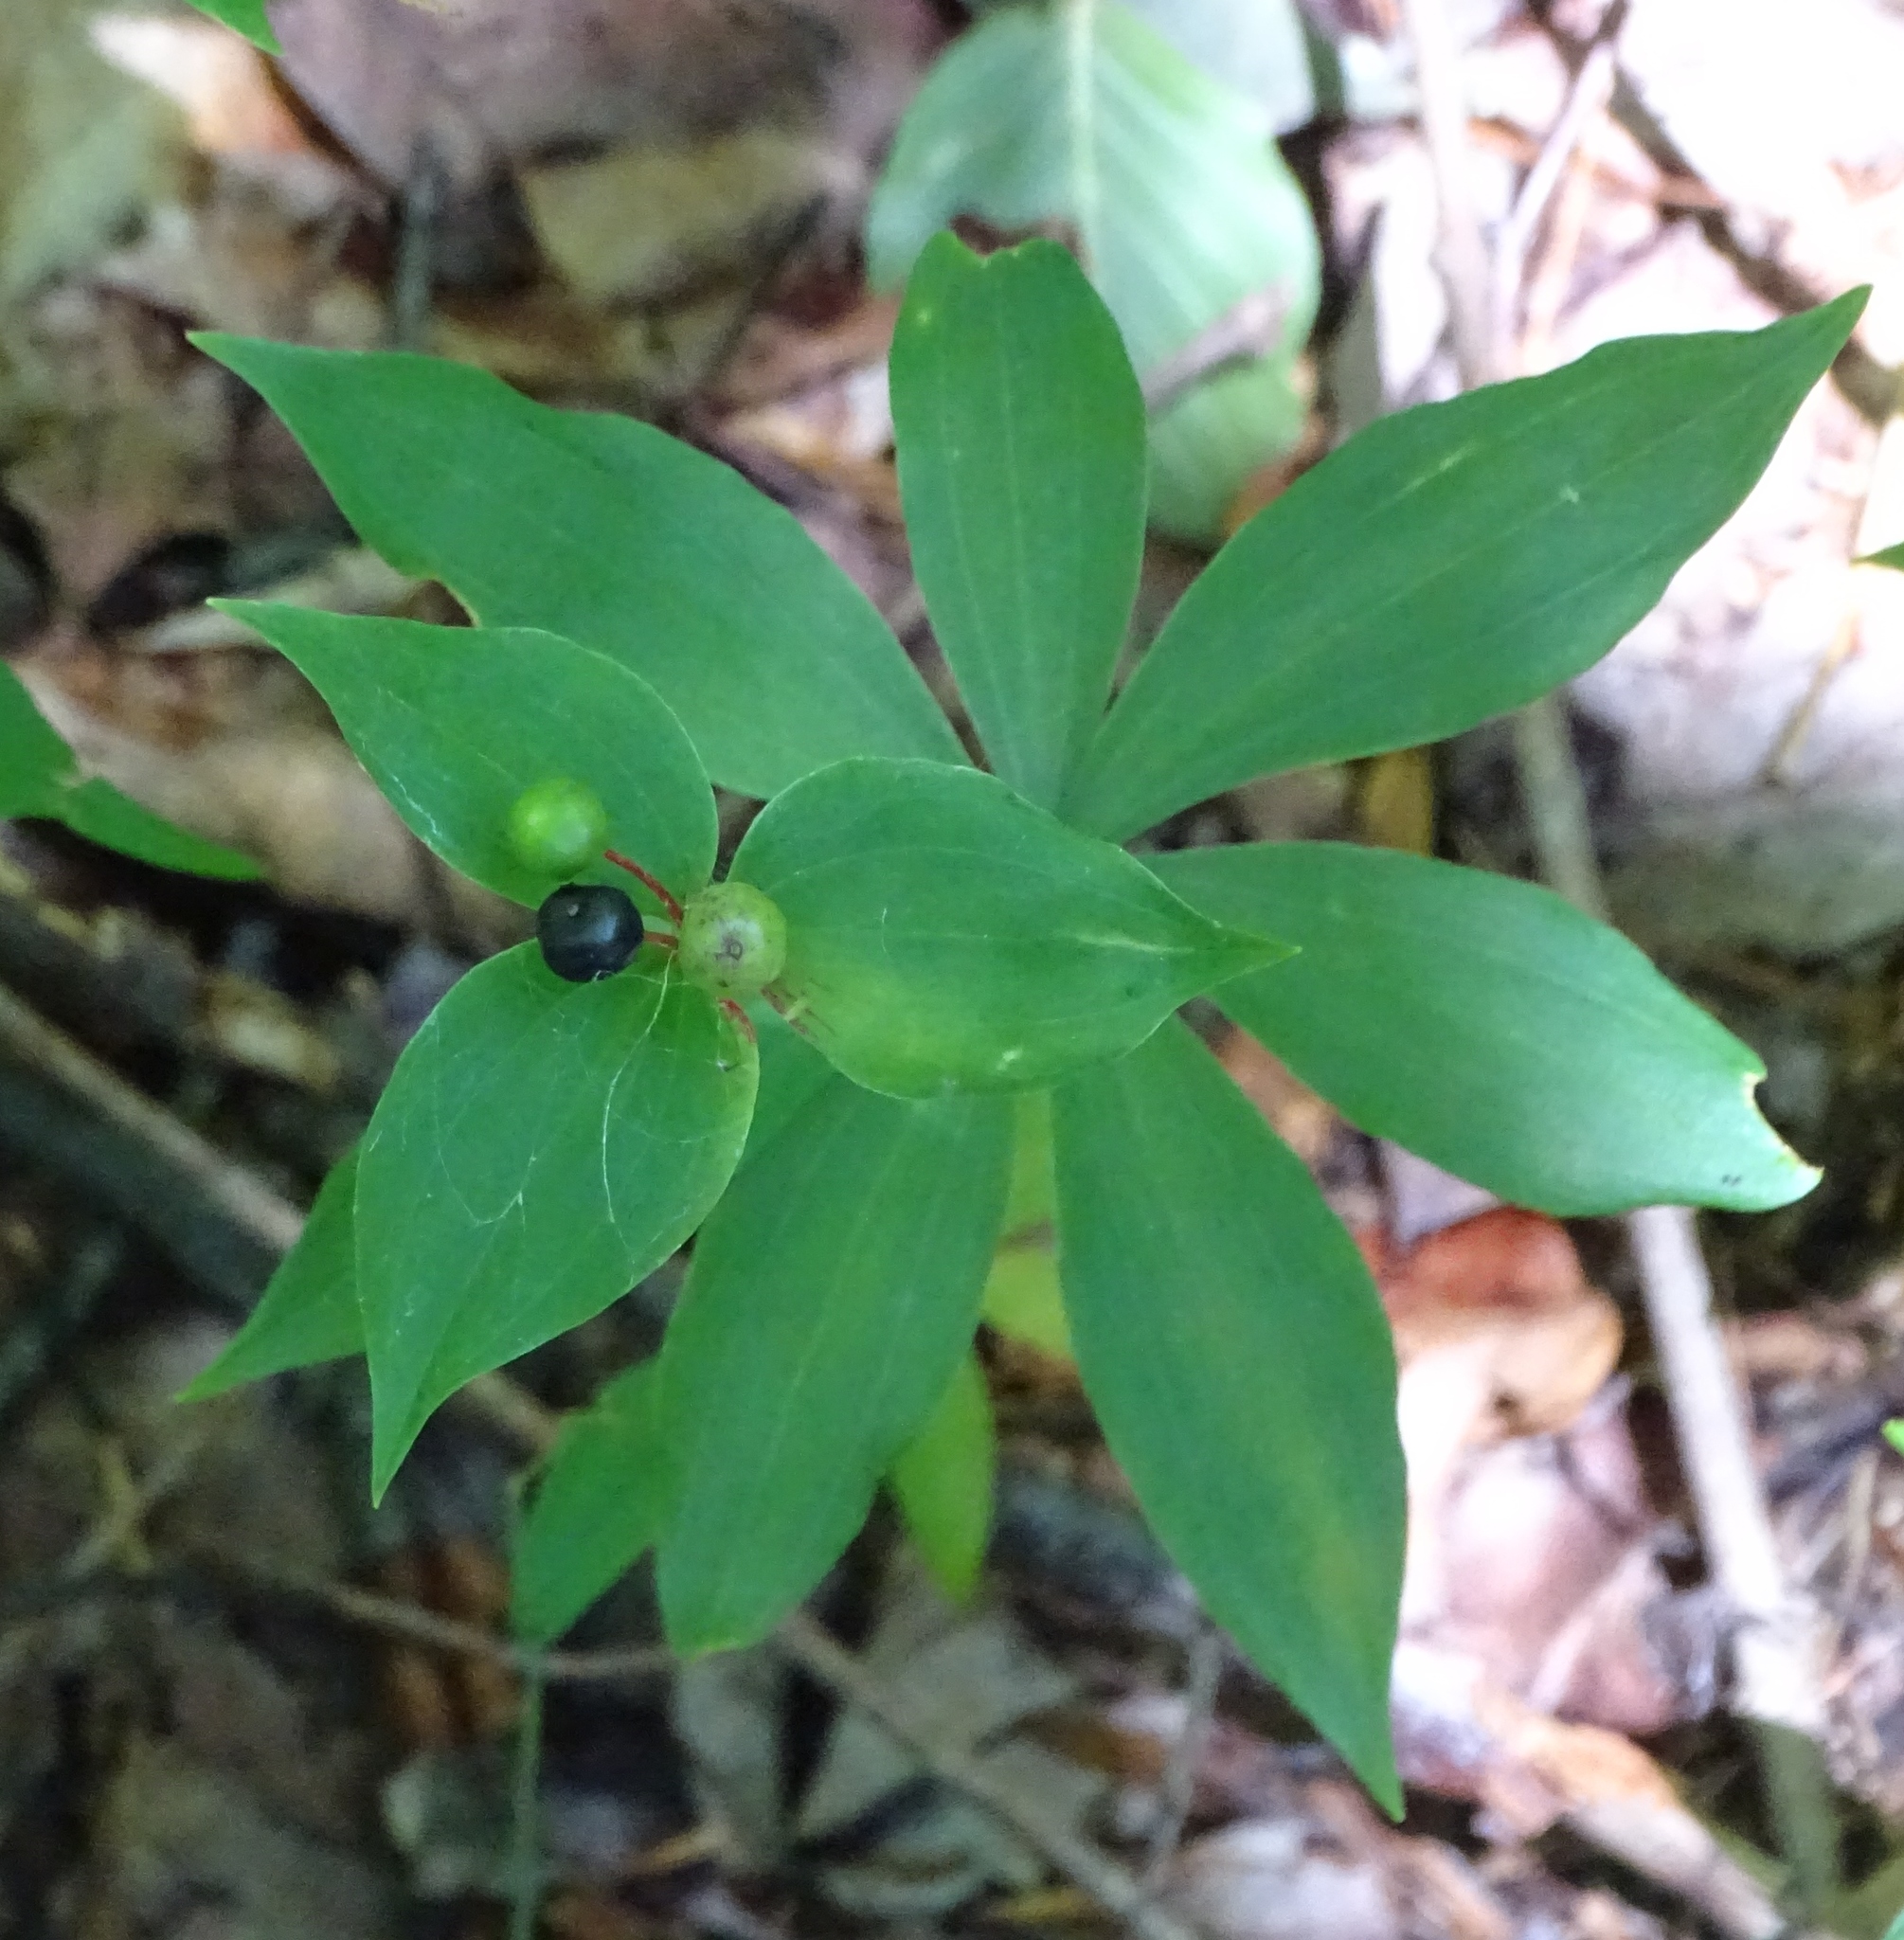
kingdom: Plantae
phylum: Tracheophyta
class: Liliopsida
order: Liliales
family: Liliaceae
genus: Medeola
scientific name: Medeola virginiana
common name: Indian cucumber-root
